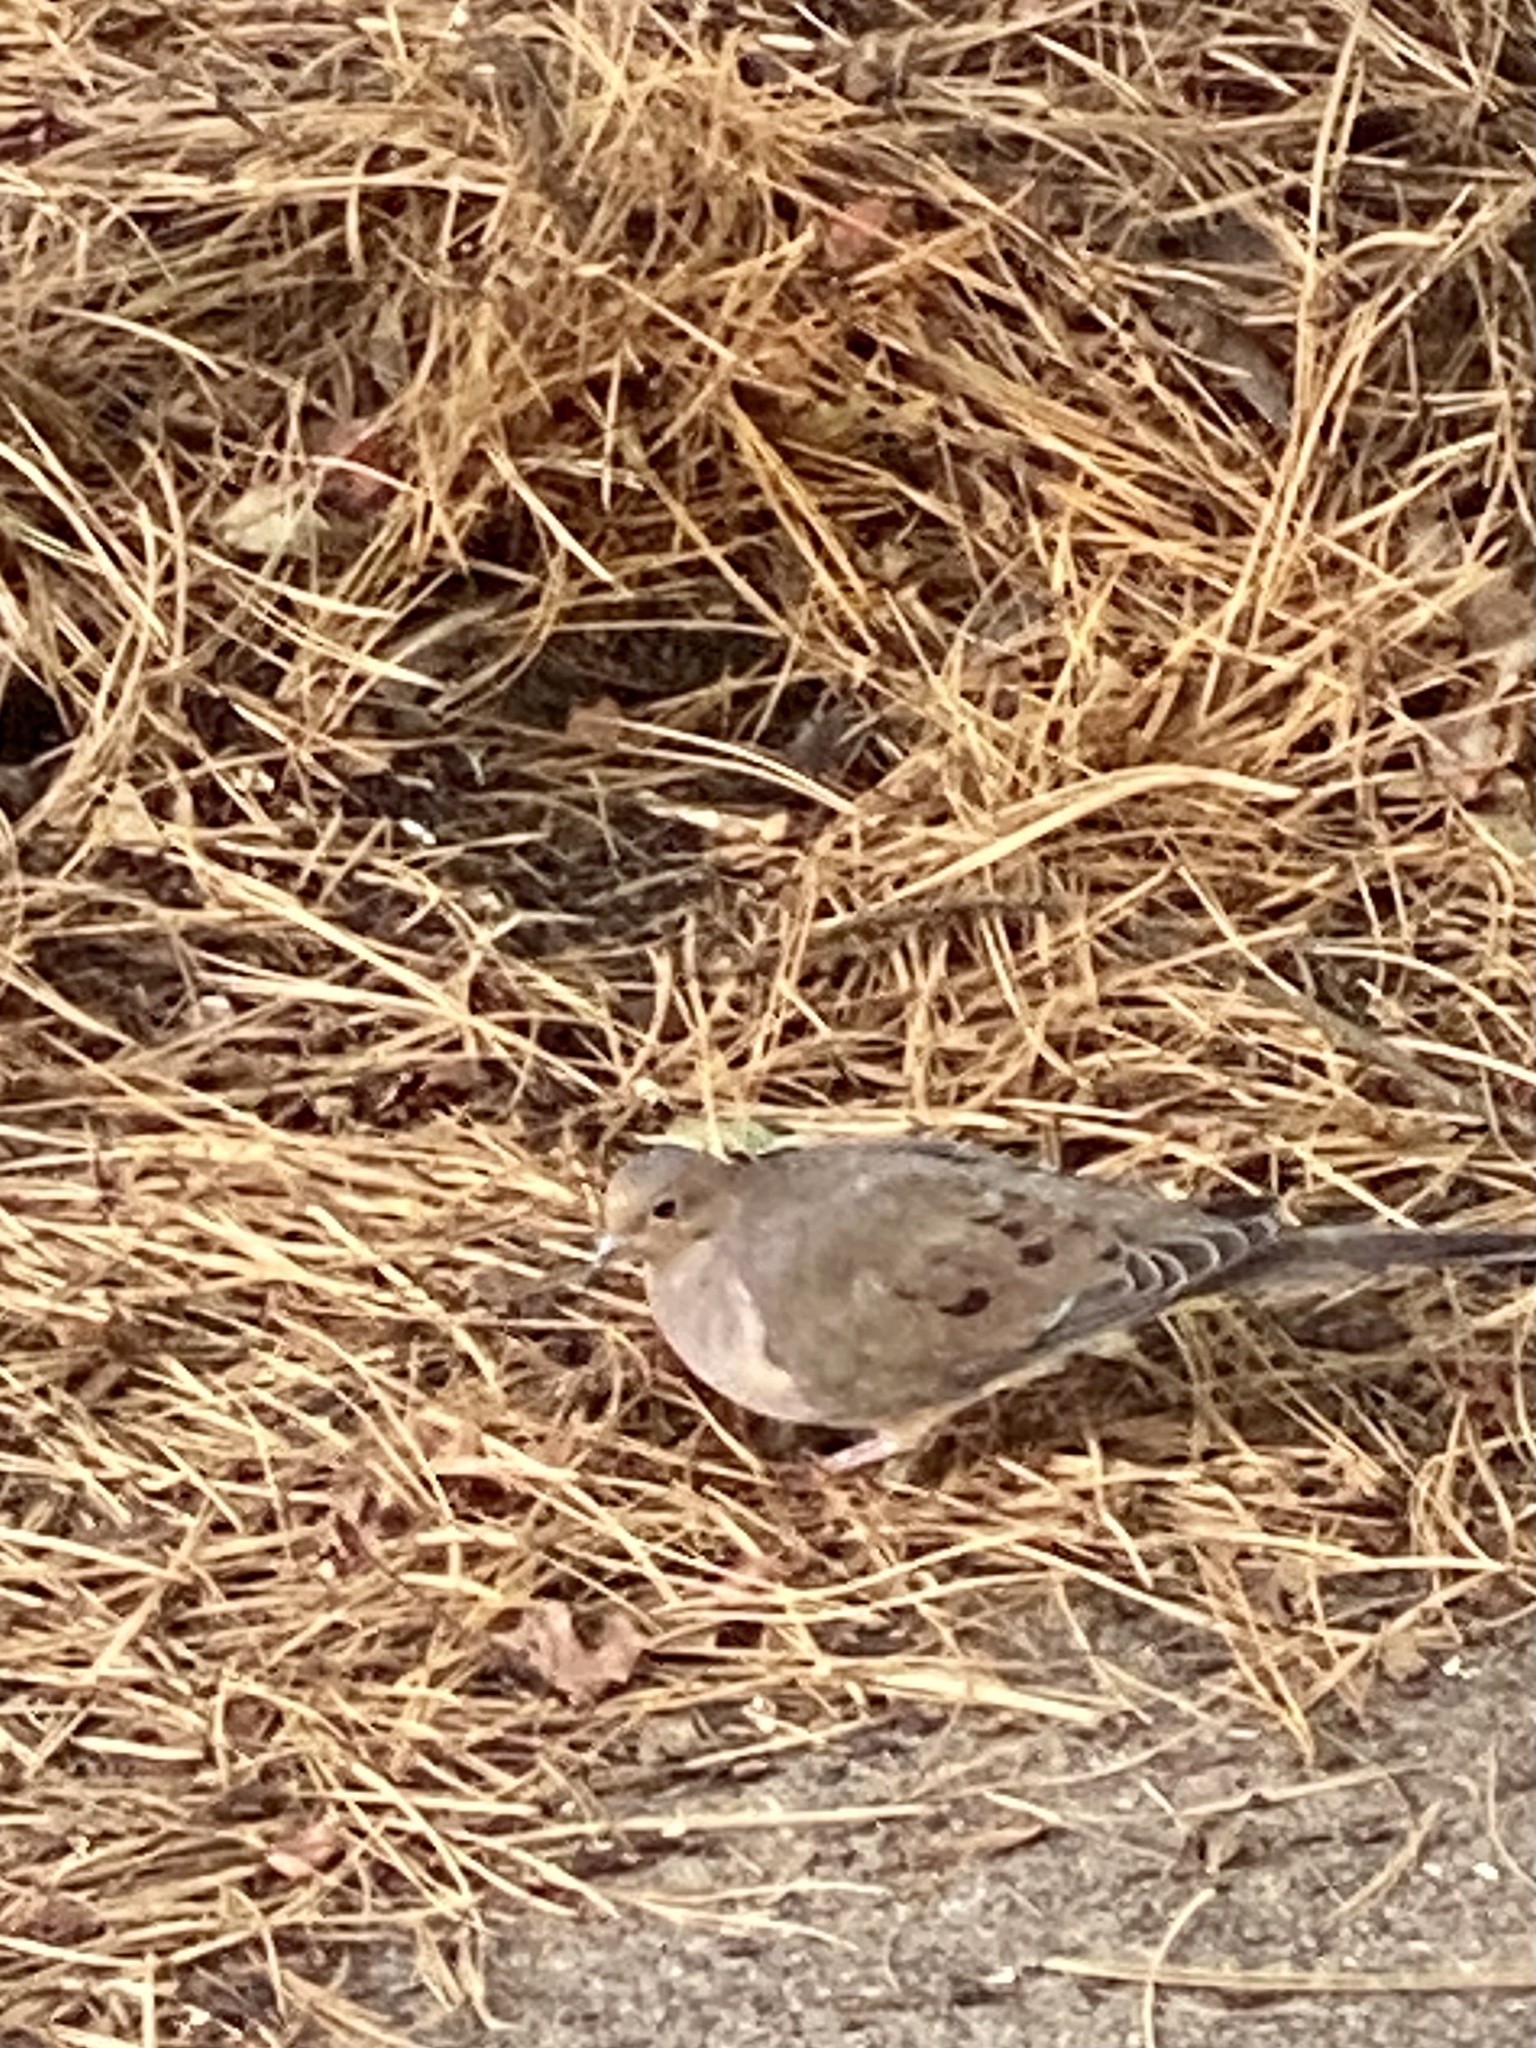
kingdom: Animalia
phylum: Chordata
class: Aves
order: Columbiformes
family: Columbidae
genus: Zenaida
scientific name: Zenaida macroura
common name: Mourning dove
